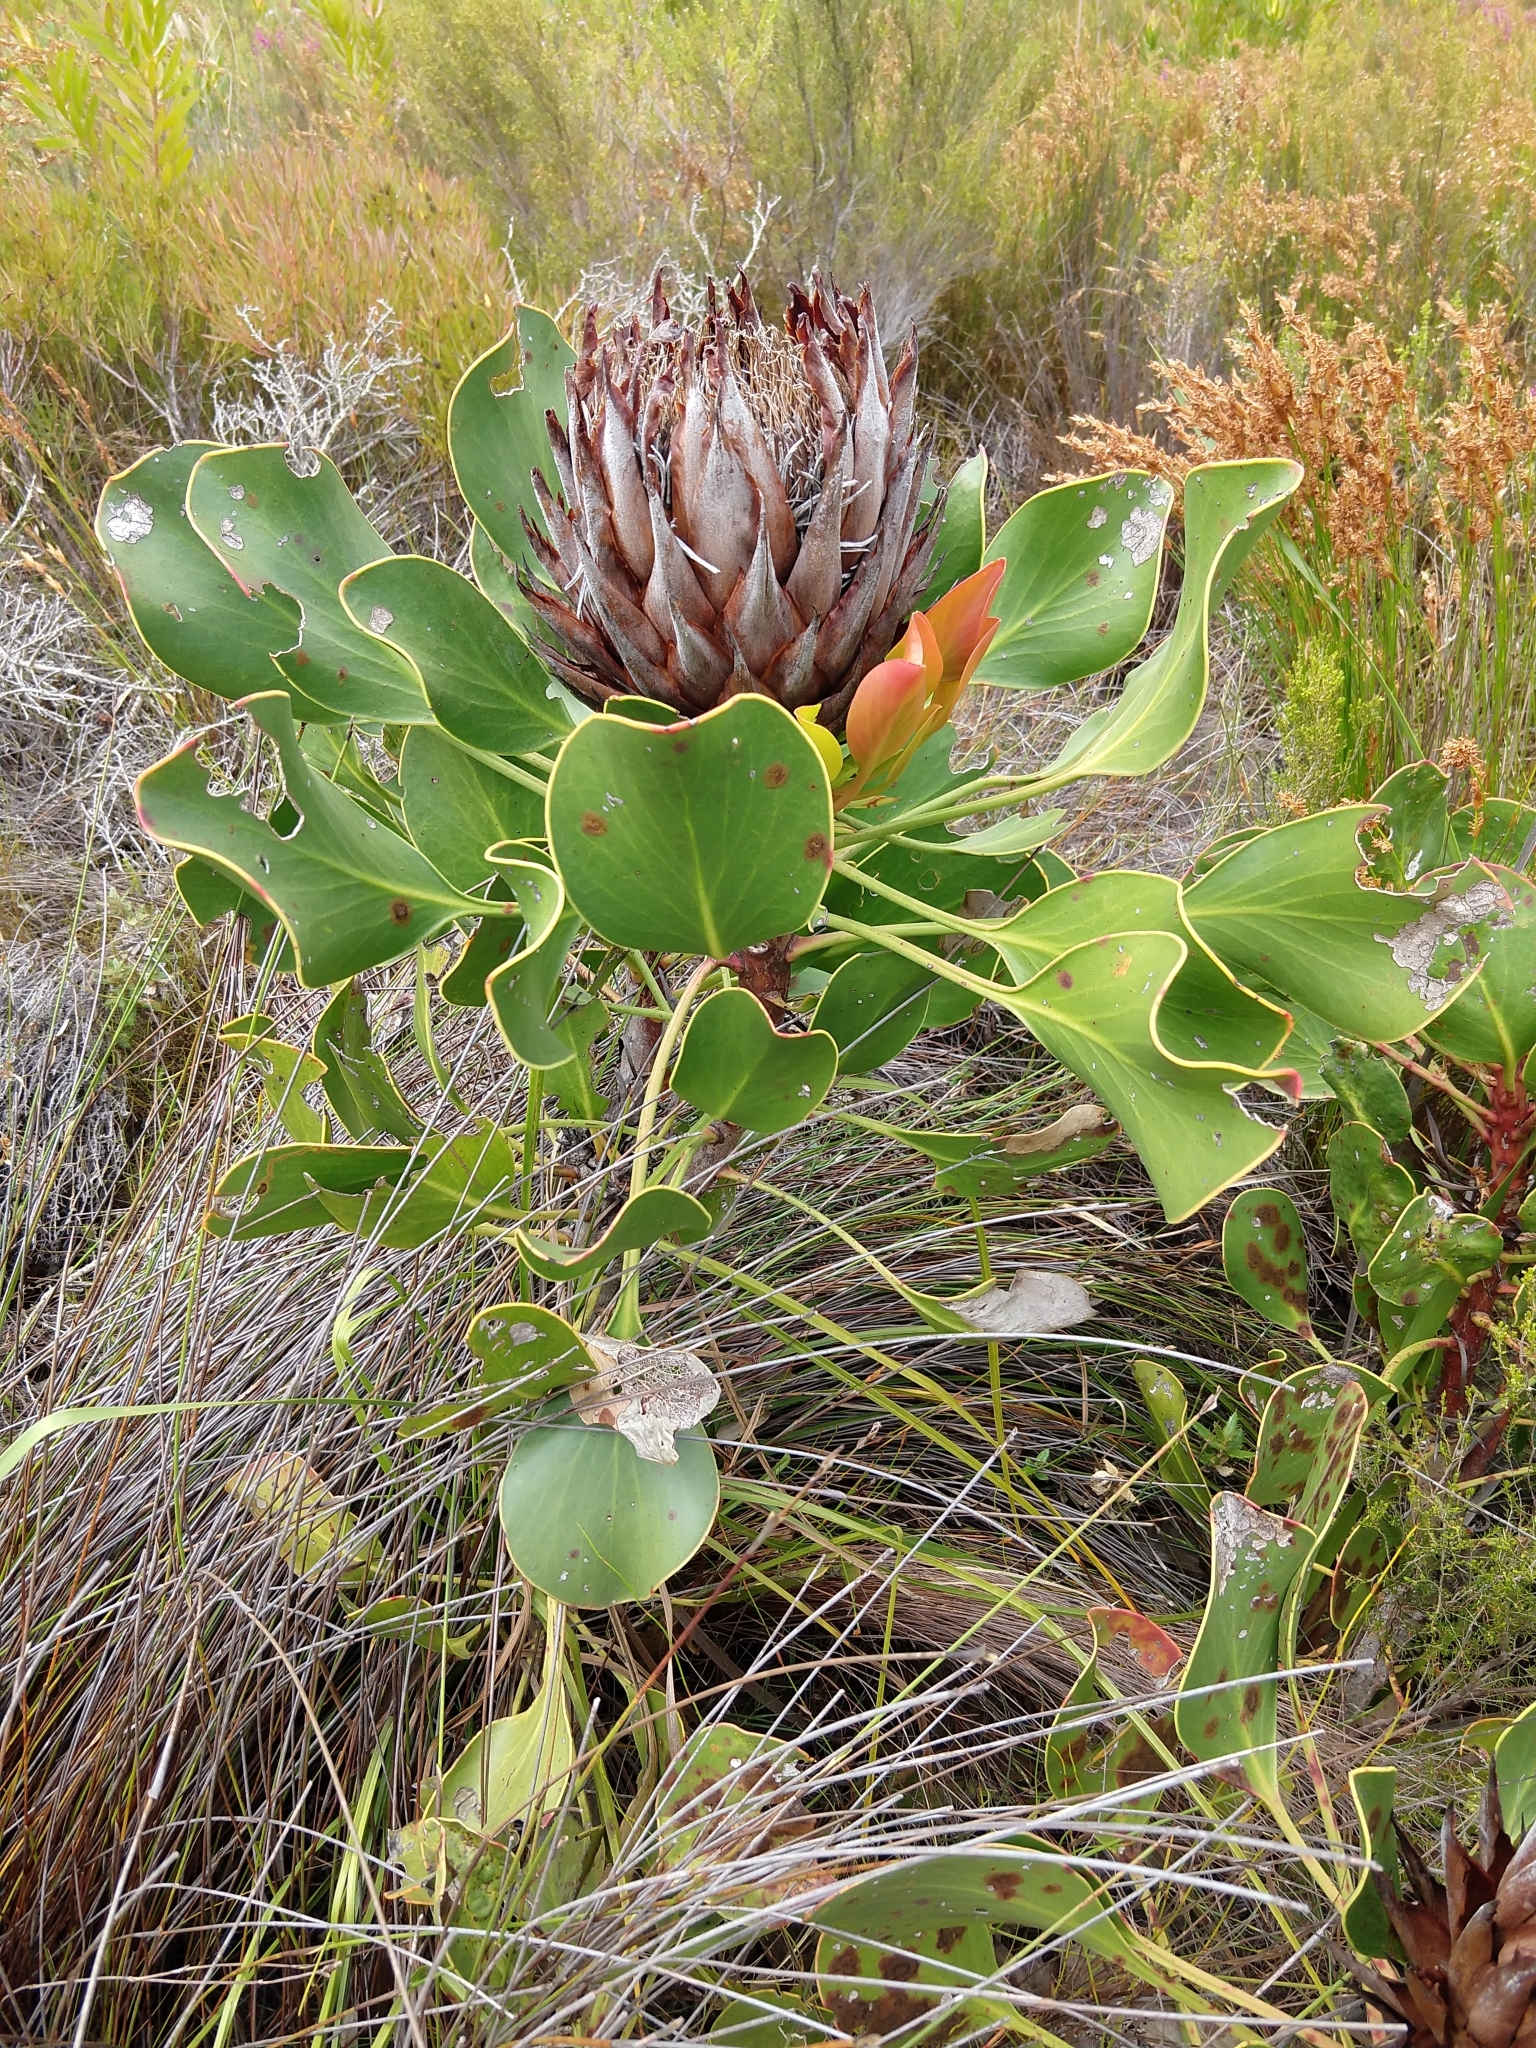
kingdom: Plantae
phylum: Tracheophyta
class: Magnoliopsida
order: Proteales
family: Proteaceae
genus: Protea
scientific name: Protea cynaroides
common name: King protea
